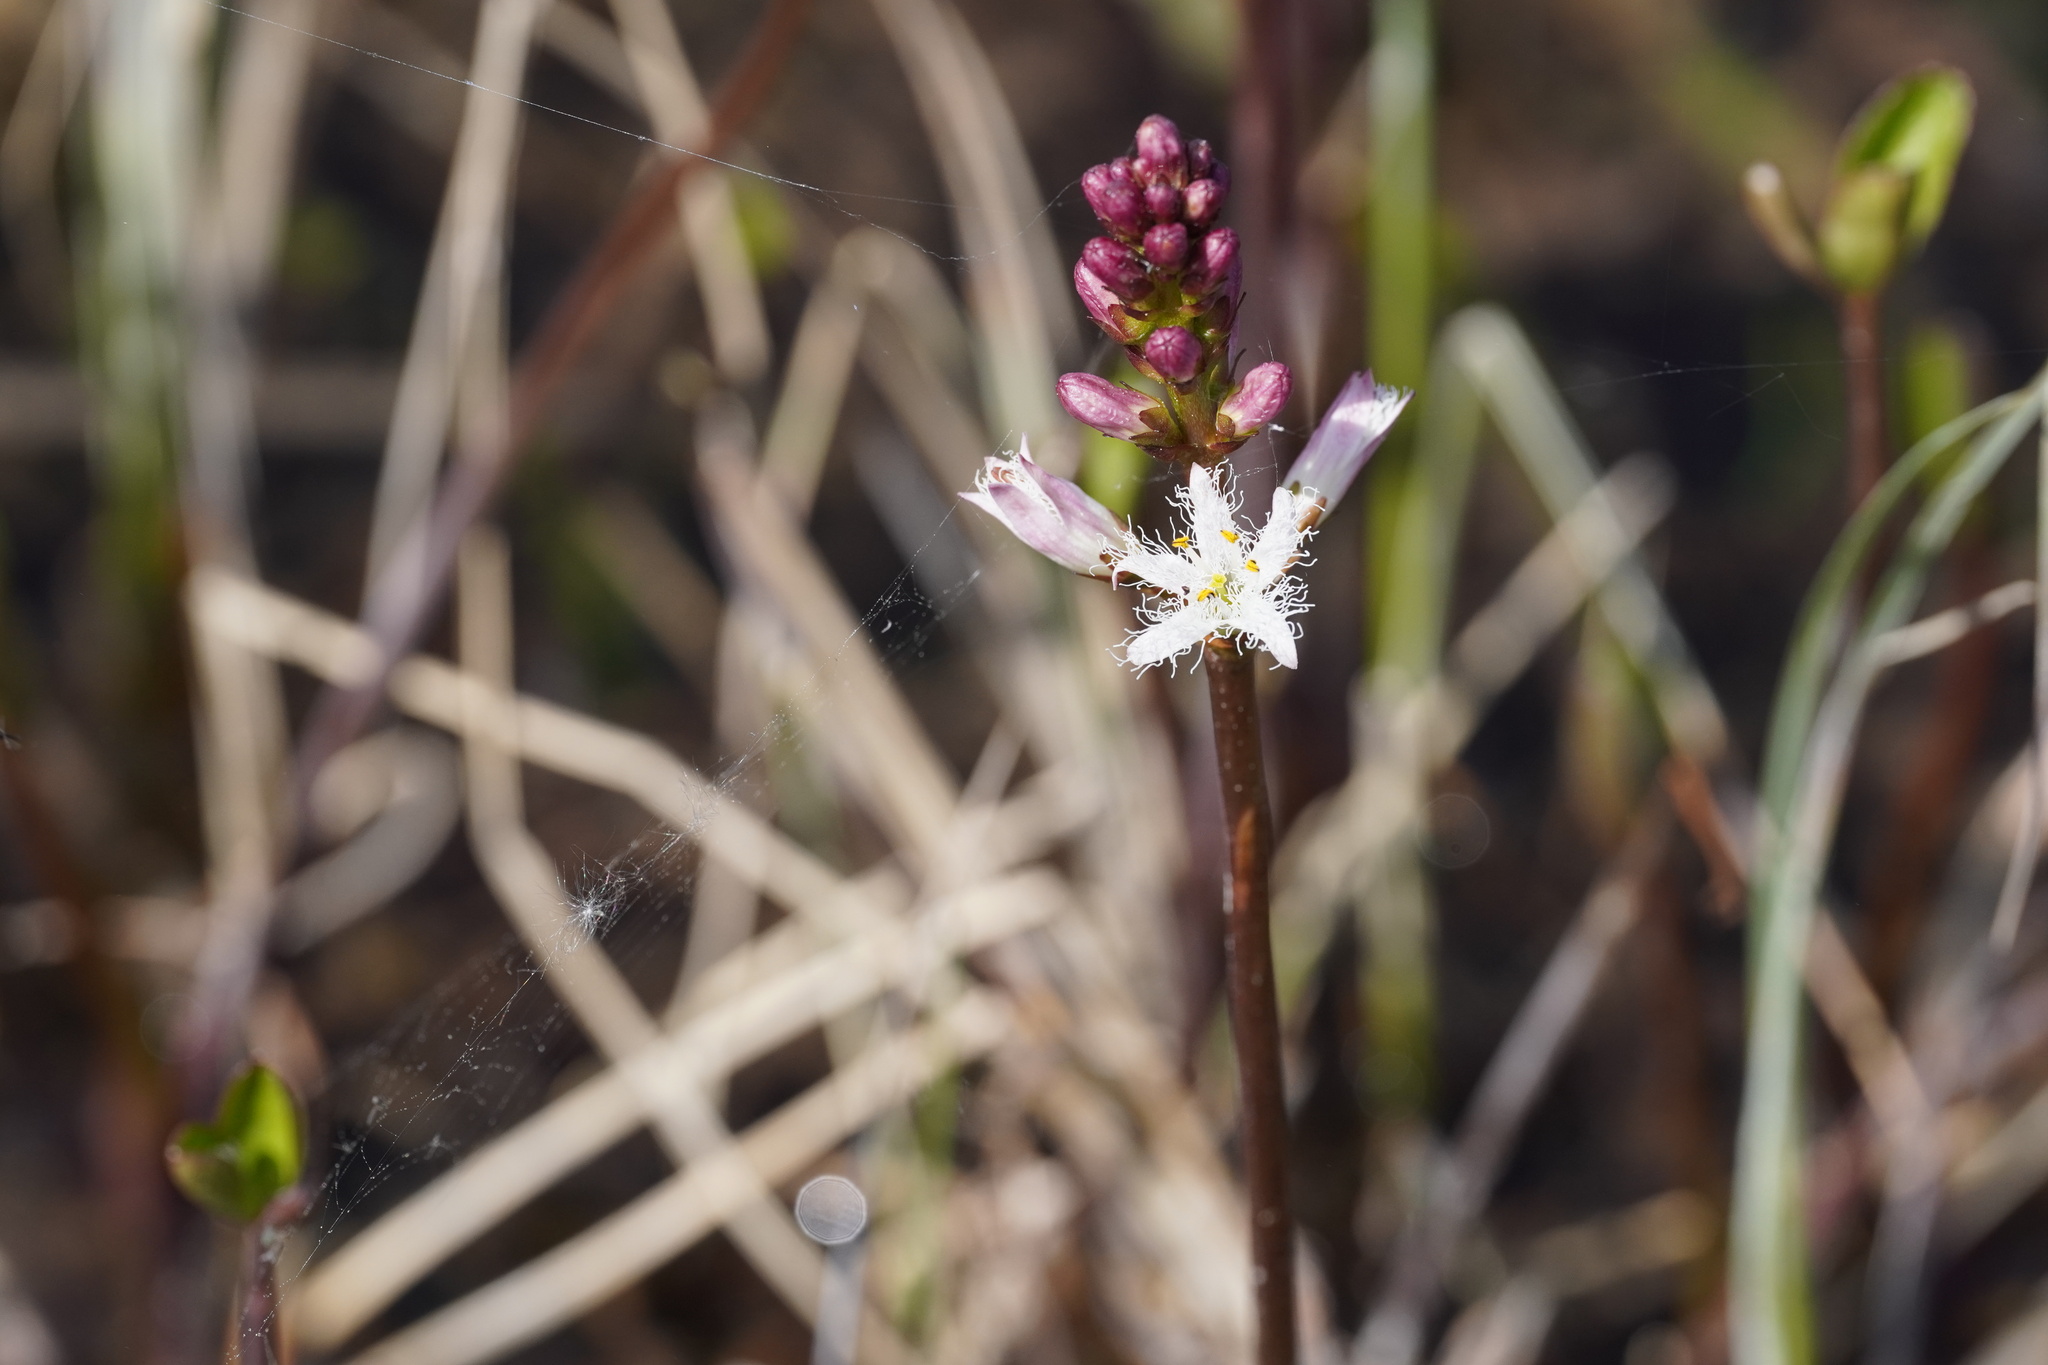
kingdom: Plantae
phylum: Tracheophyta
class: Magnoliopsida
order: Asterales
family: Menyanthaceae
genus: Menyanthes
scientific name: Menyanthes trifoliata
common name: Bogbean
